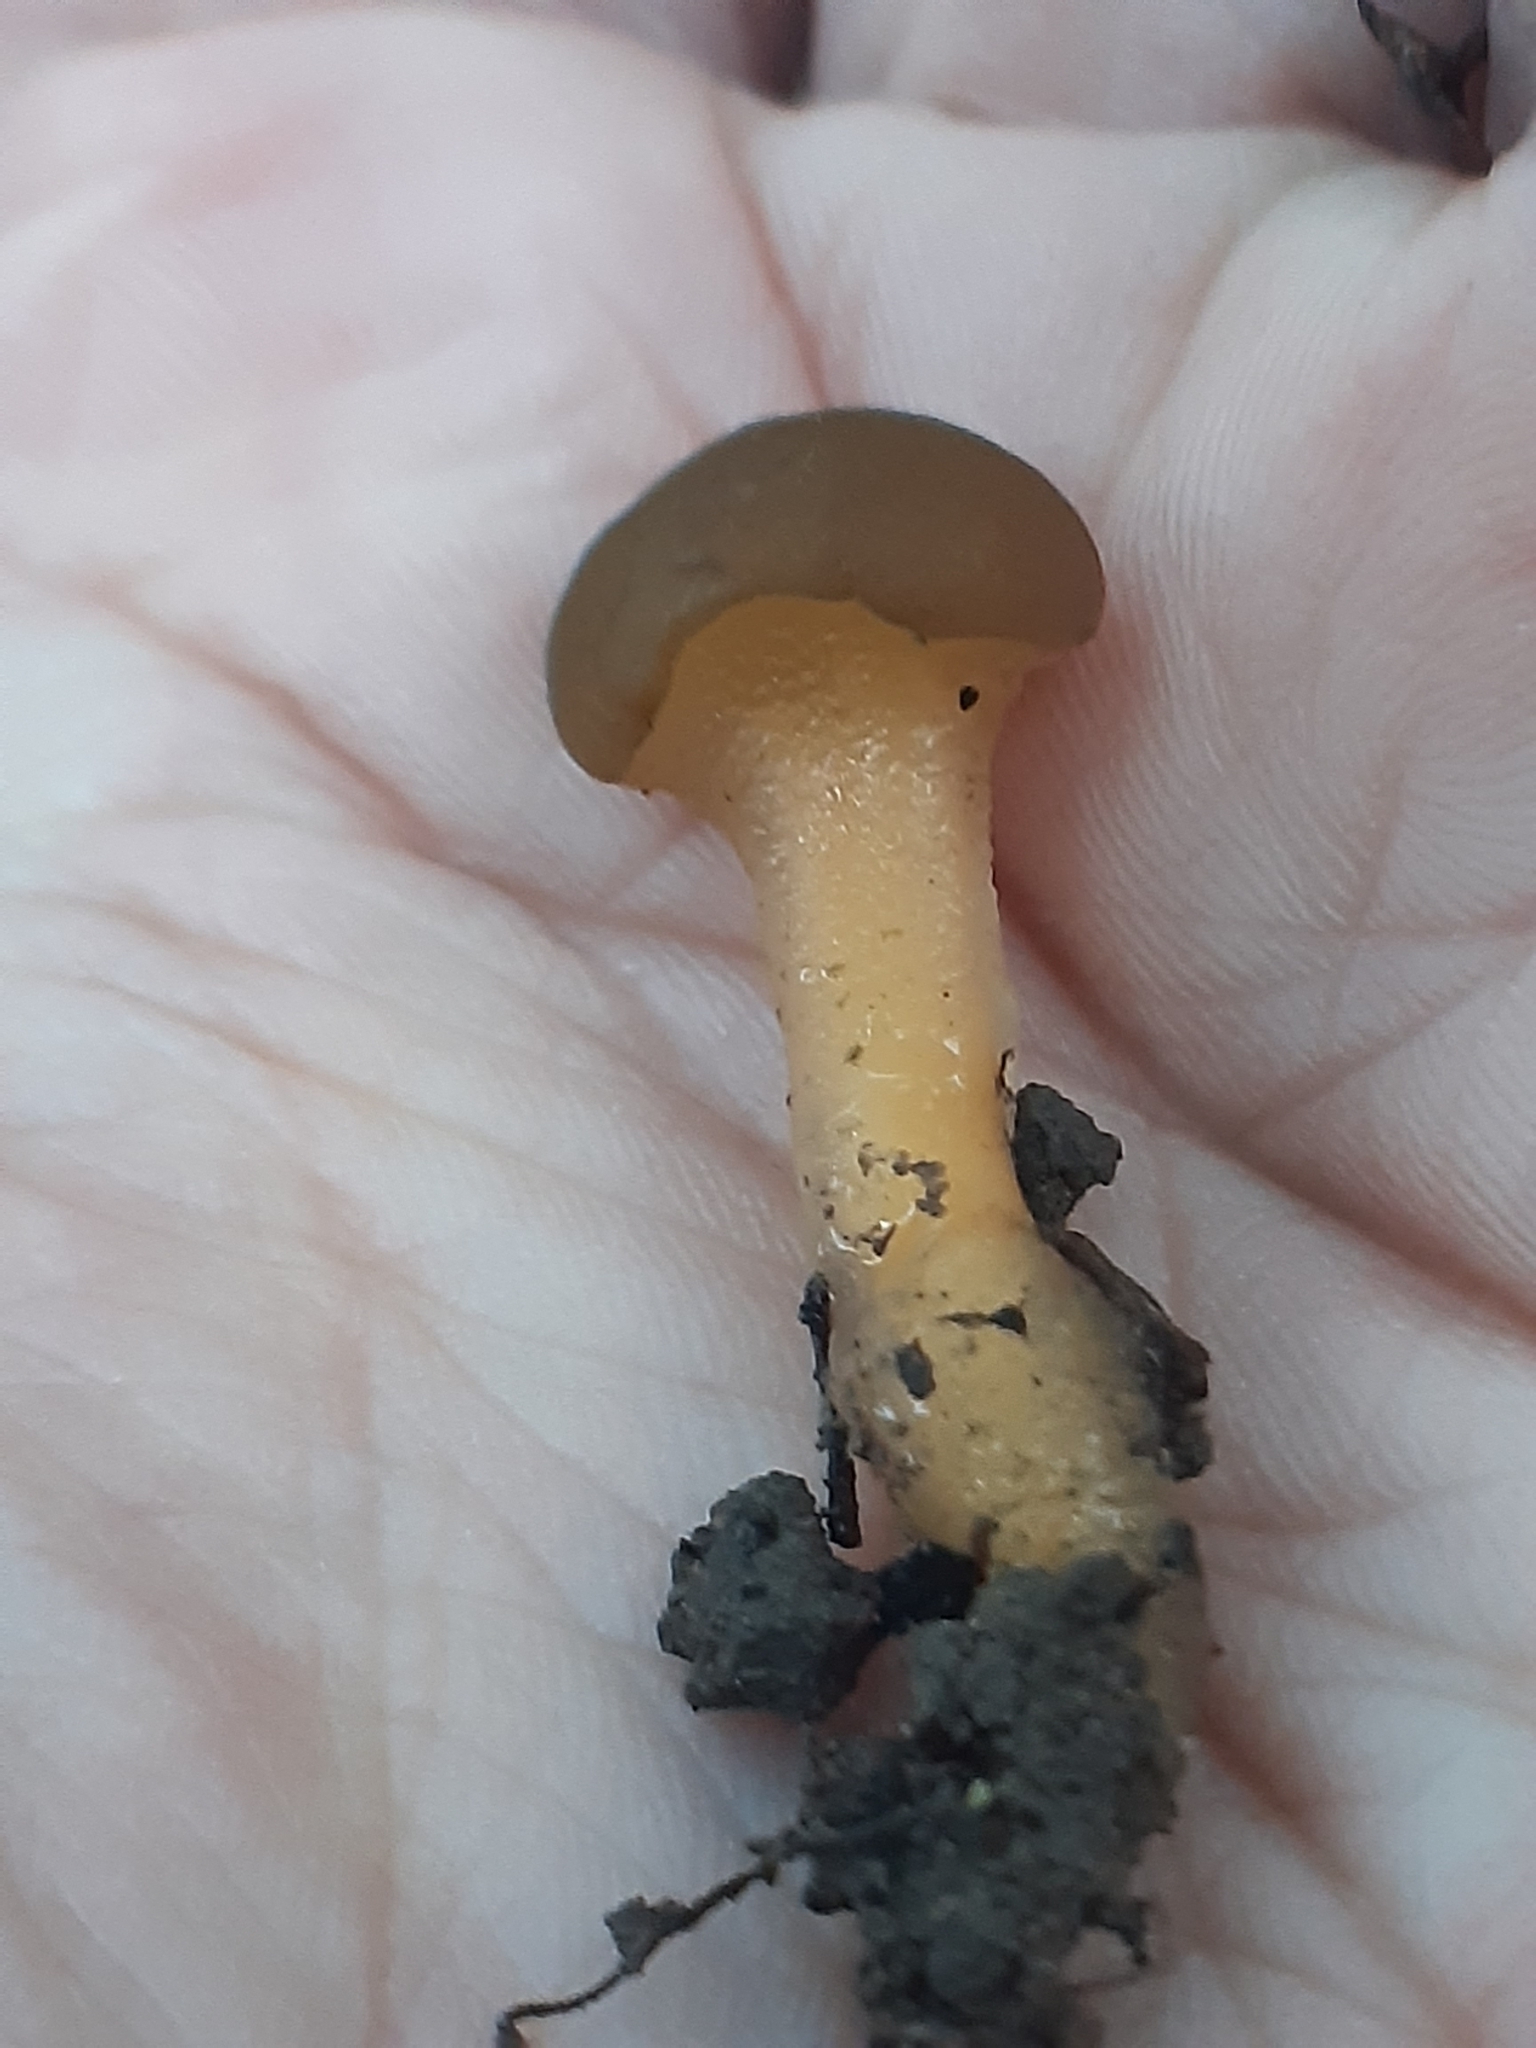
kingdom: Fungi
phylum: Ascomycota
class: Leotiomycetes
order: Leotiales
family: Leotiaceae
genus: Leotia
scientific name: Leotia lubrica
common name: Jellybaby
